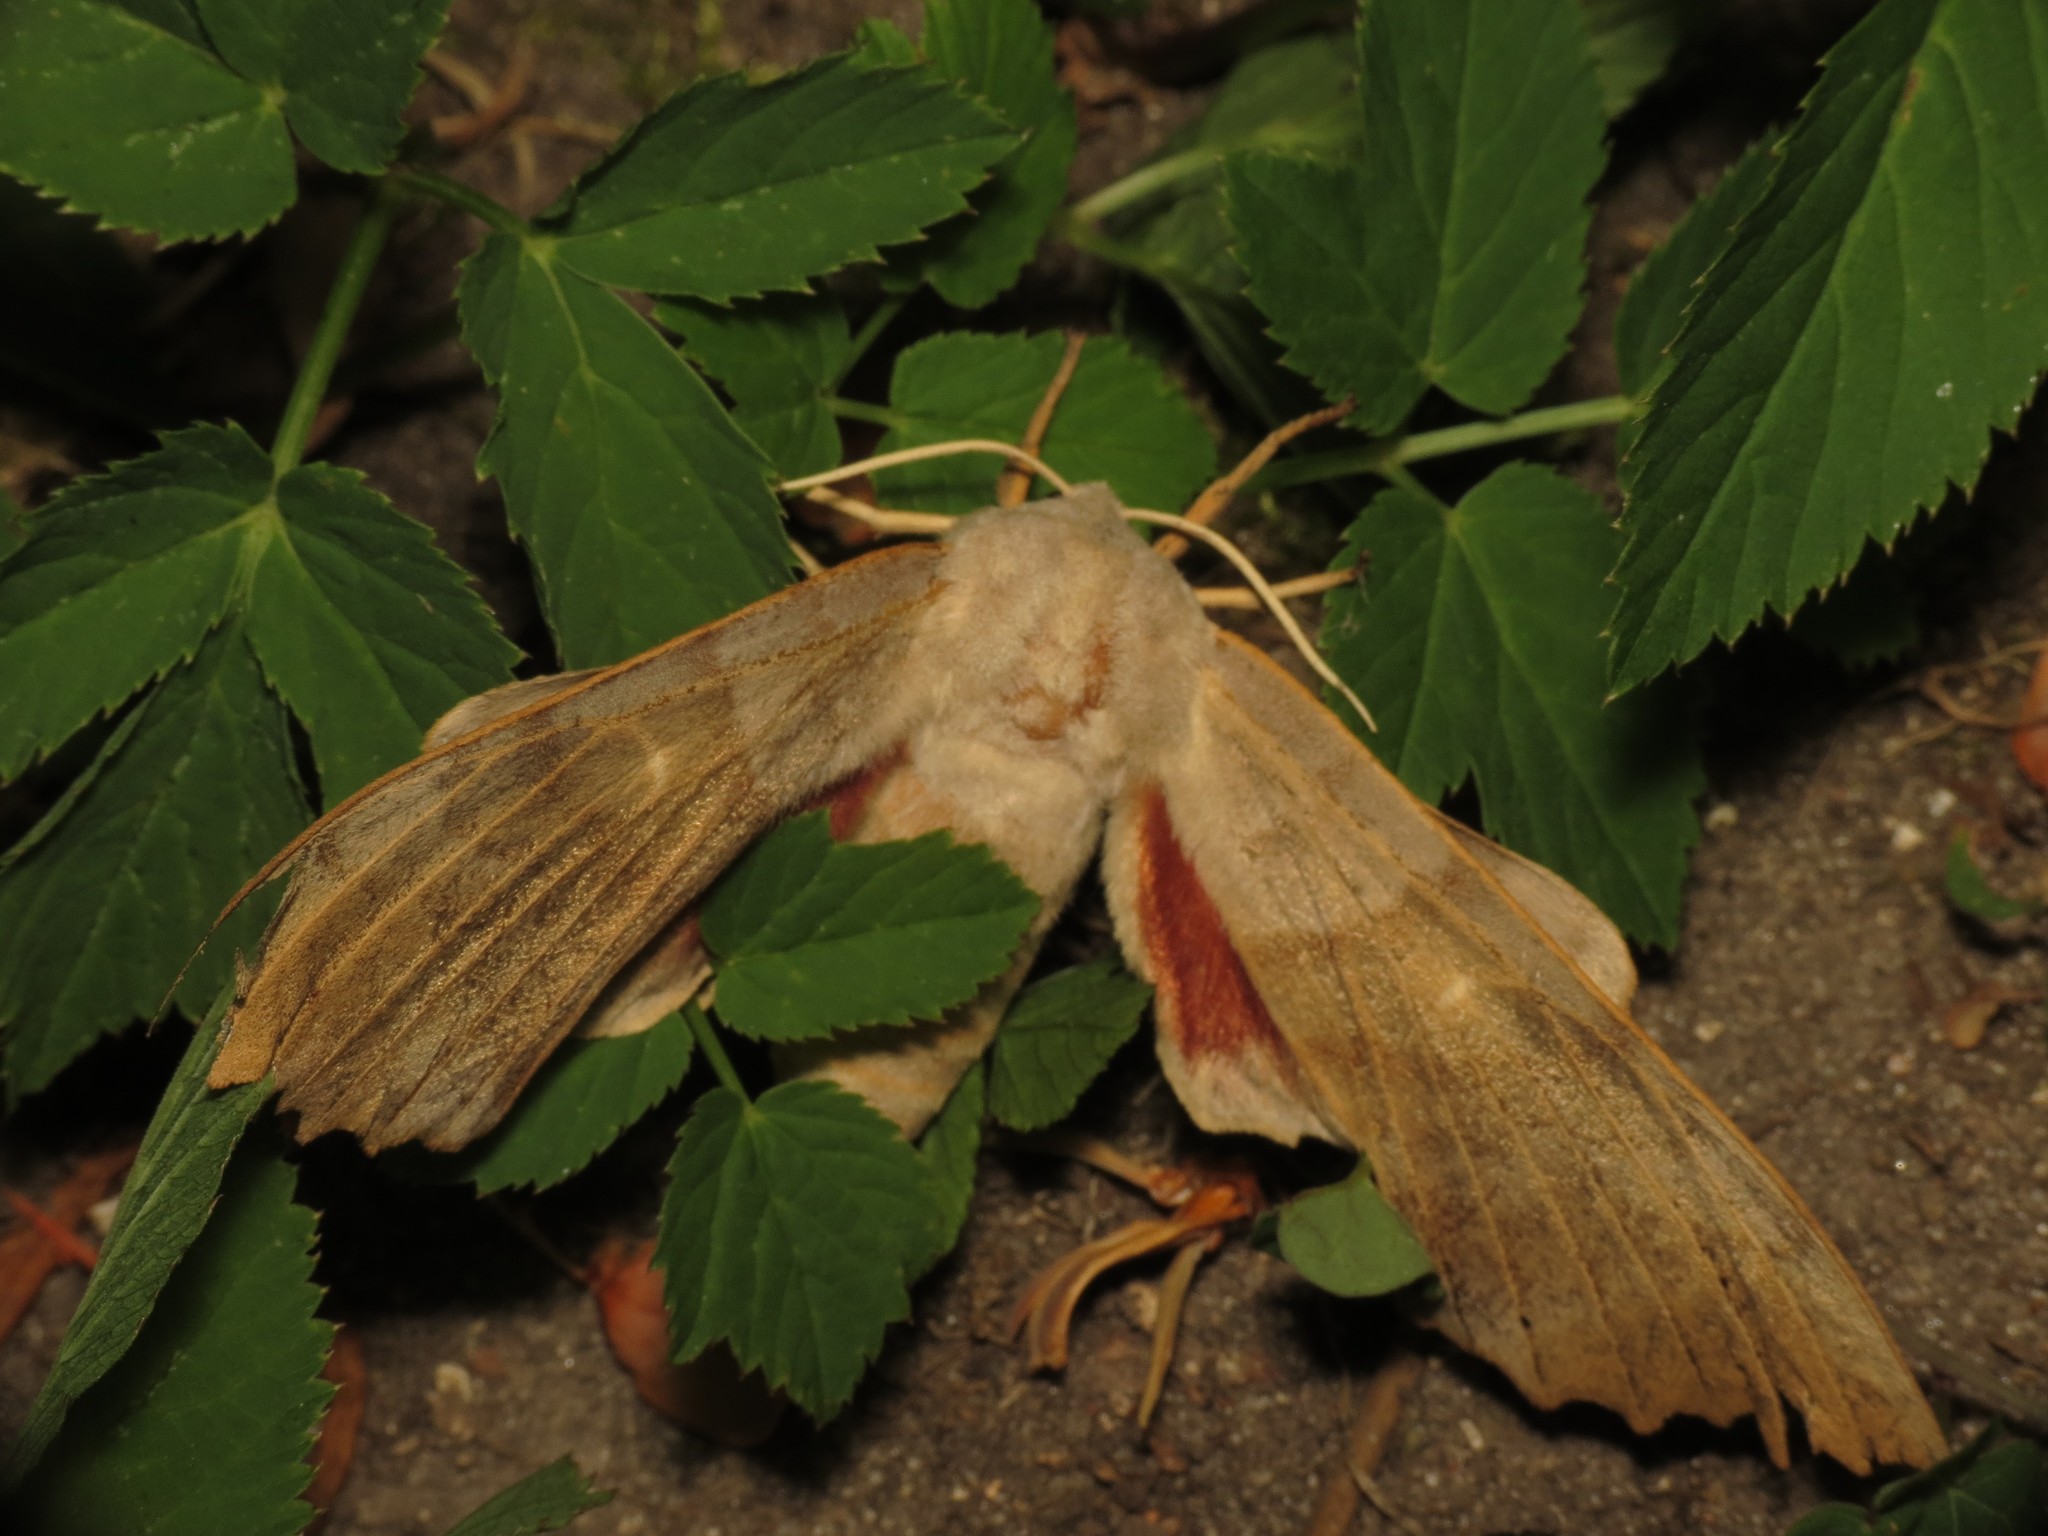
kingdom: Animalia
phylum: Arthropoda
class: Insecta
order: Lepidoptera
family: Sphingidae
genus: Laothoe
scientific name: Laothoe populi
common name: Poplar hawk-moth
